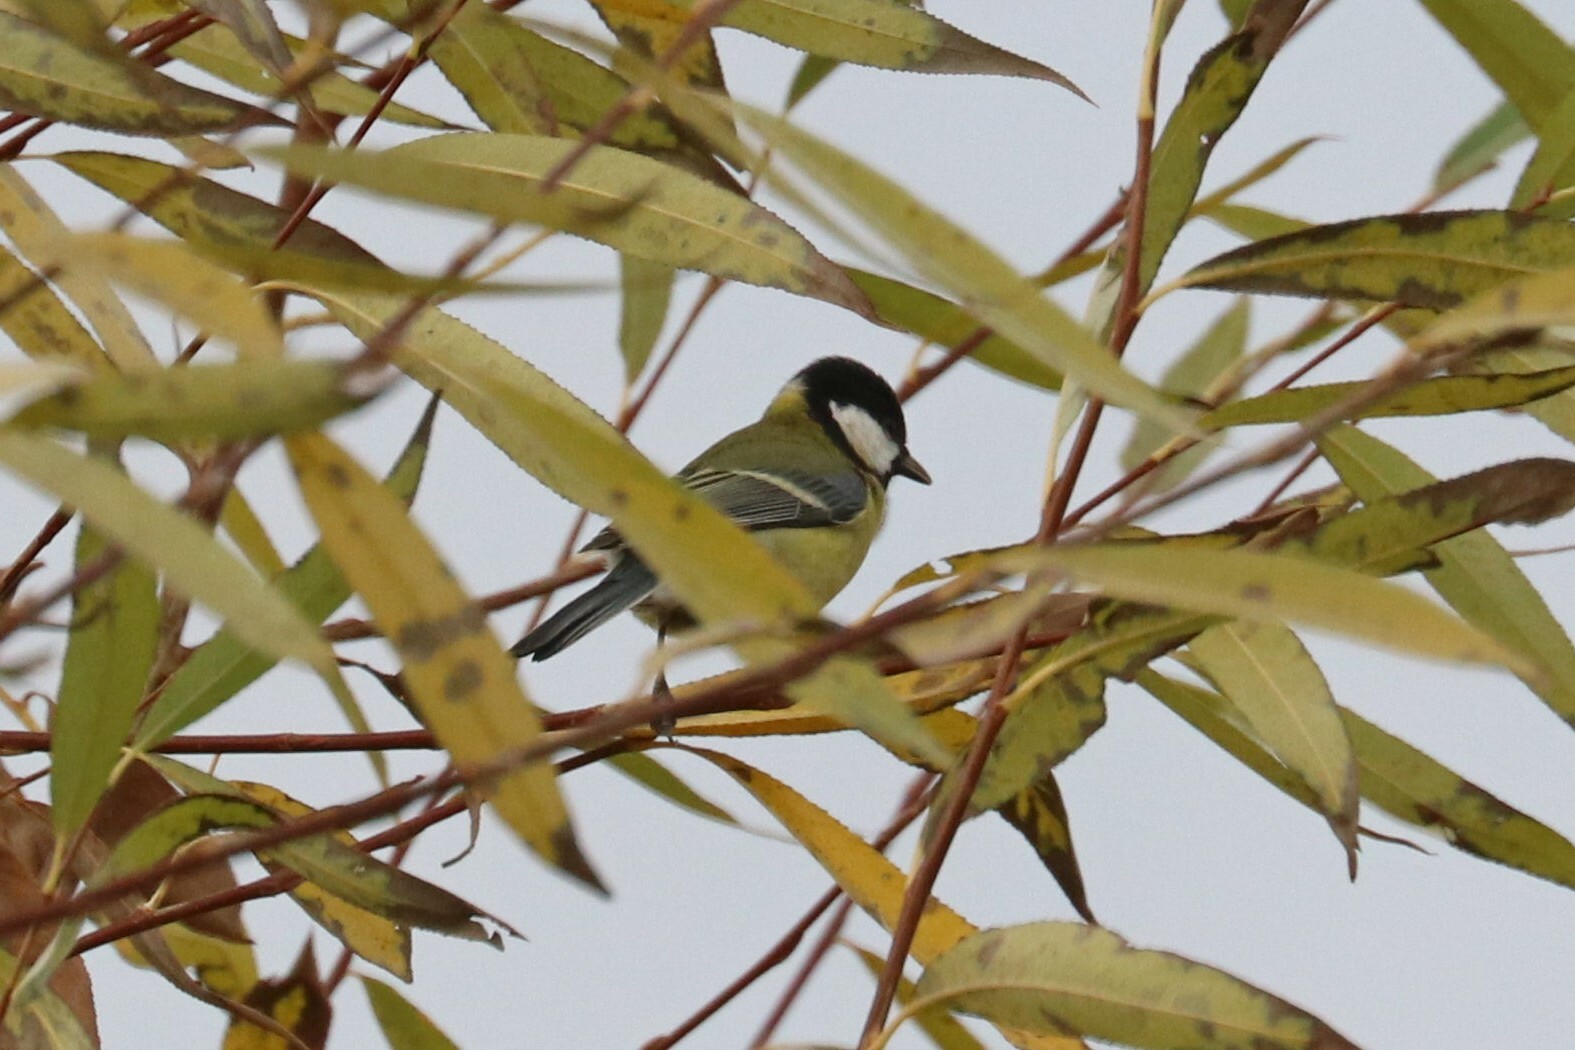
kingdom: Animalia
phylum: Chordata
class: Aves
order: Passeriformes
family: Paridae
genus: Parus
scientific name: Parus major
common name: Great tit
